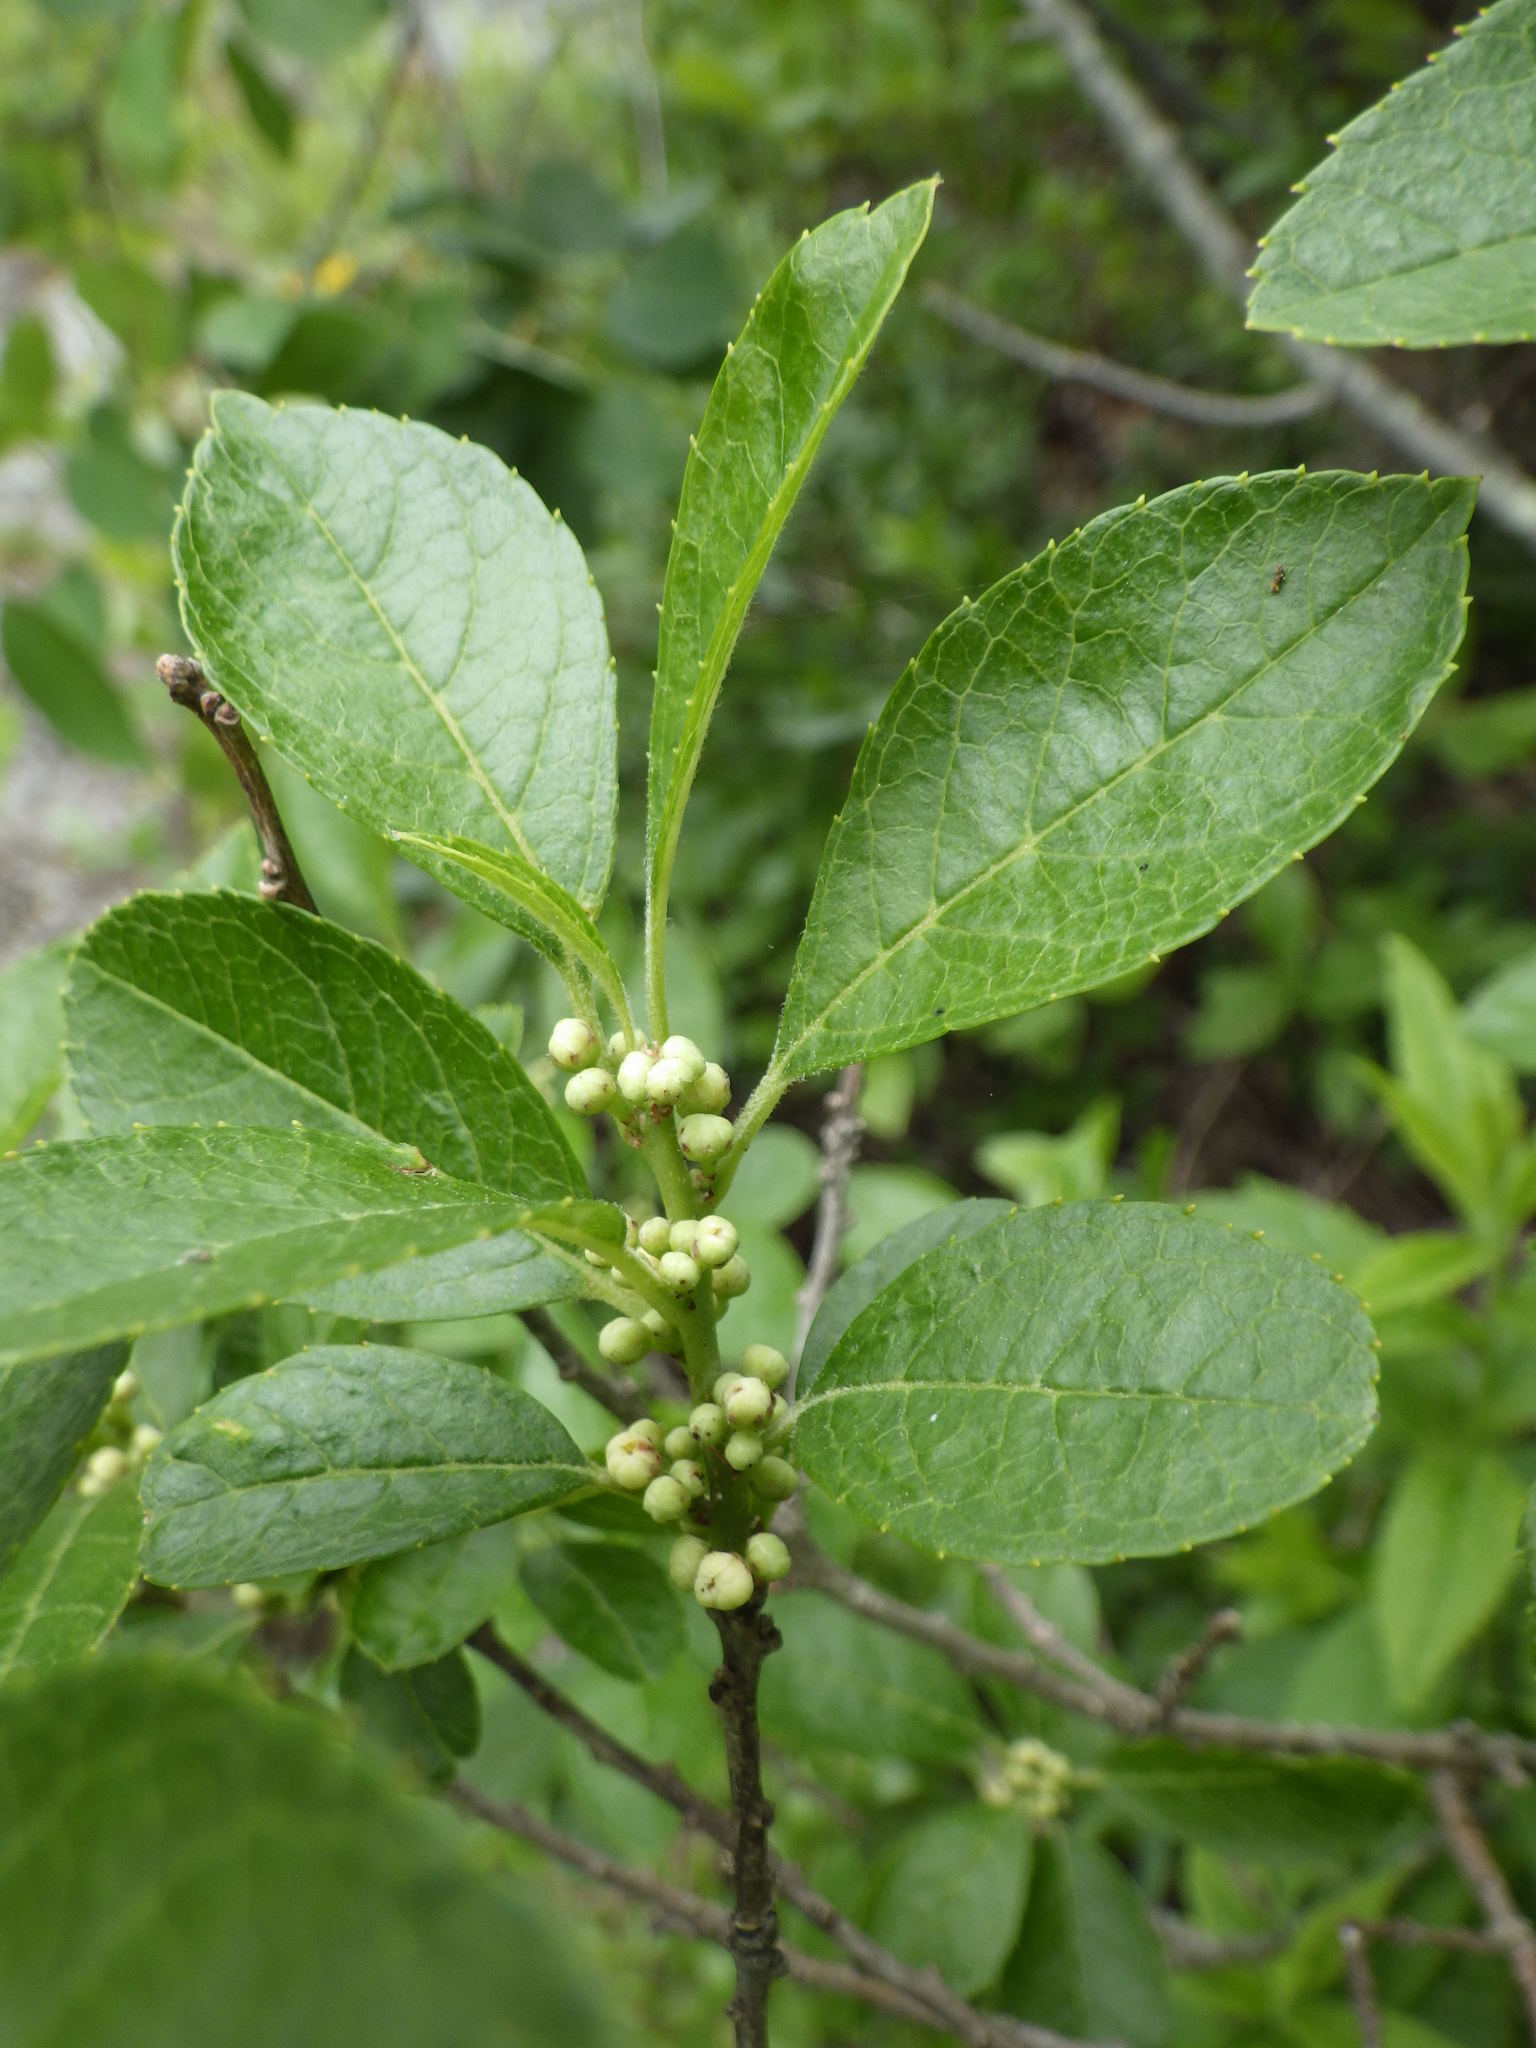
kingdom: Plantae
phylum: Tracheophyta
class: Magnoliopsida
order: Aquifoliales
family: Aquifoliaceae
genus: Ilex
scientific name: Ilex verticillata
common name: Virginia winterberry
